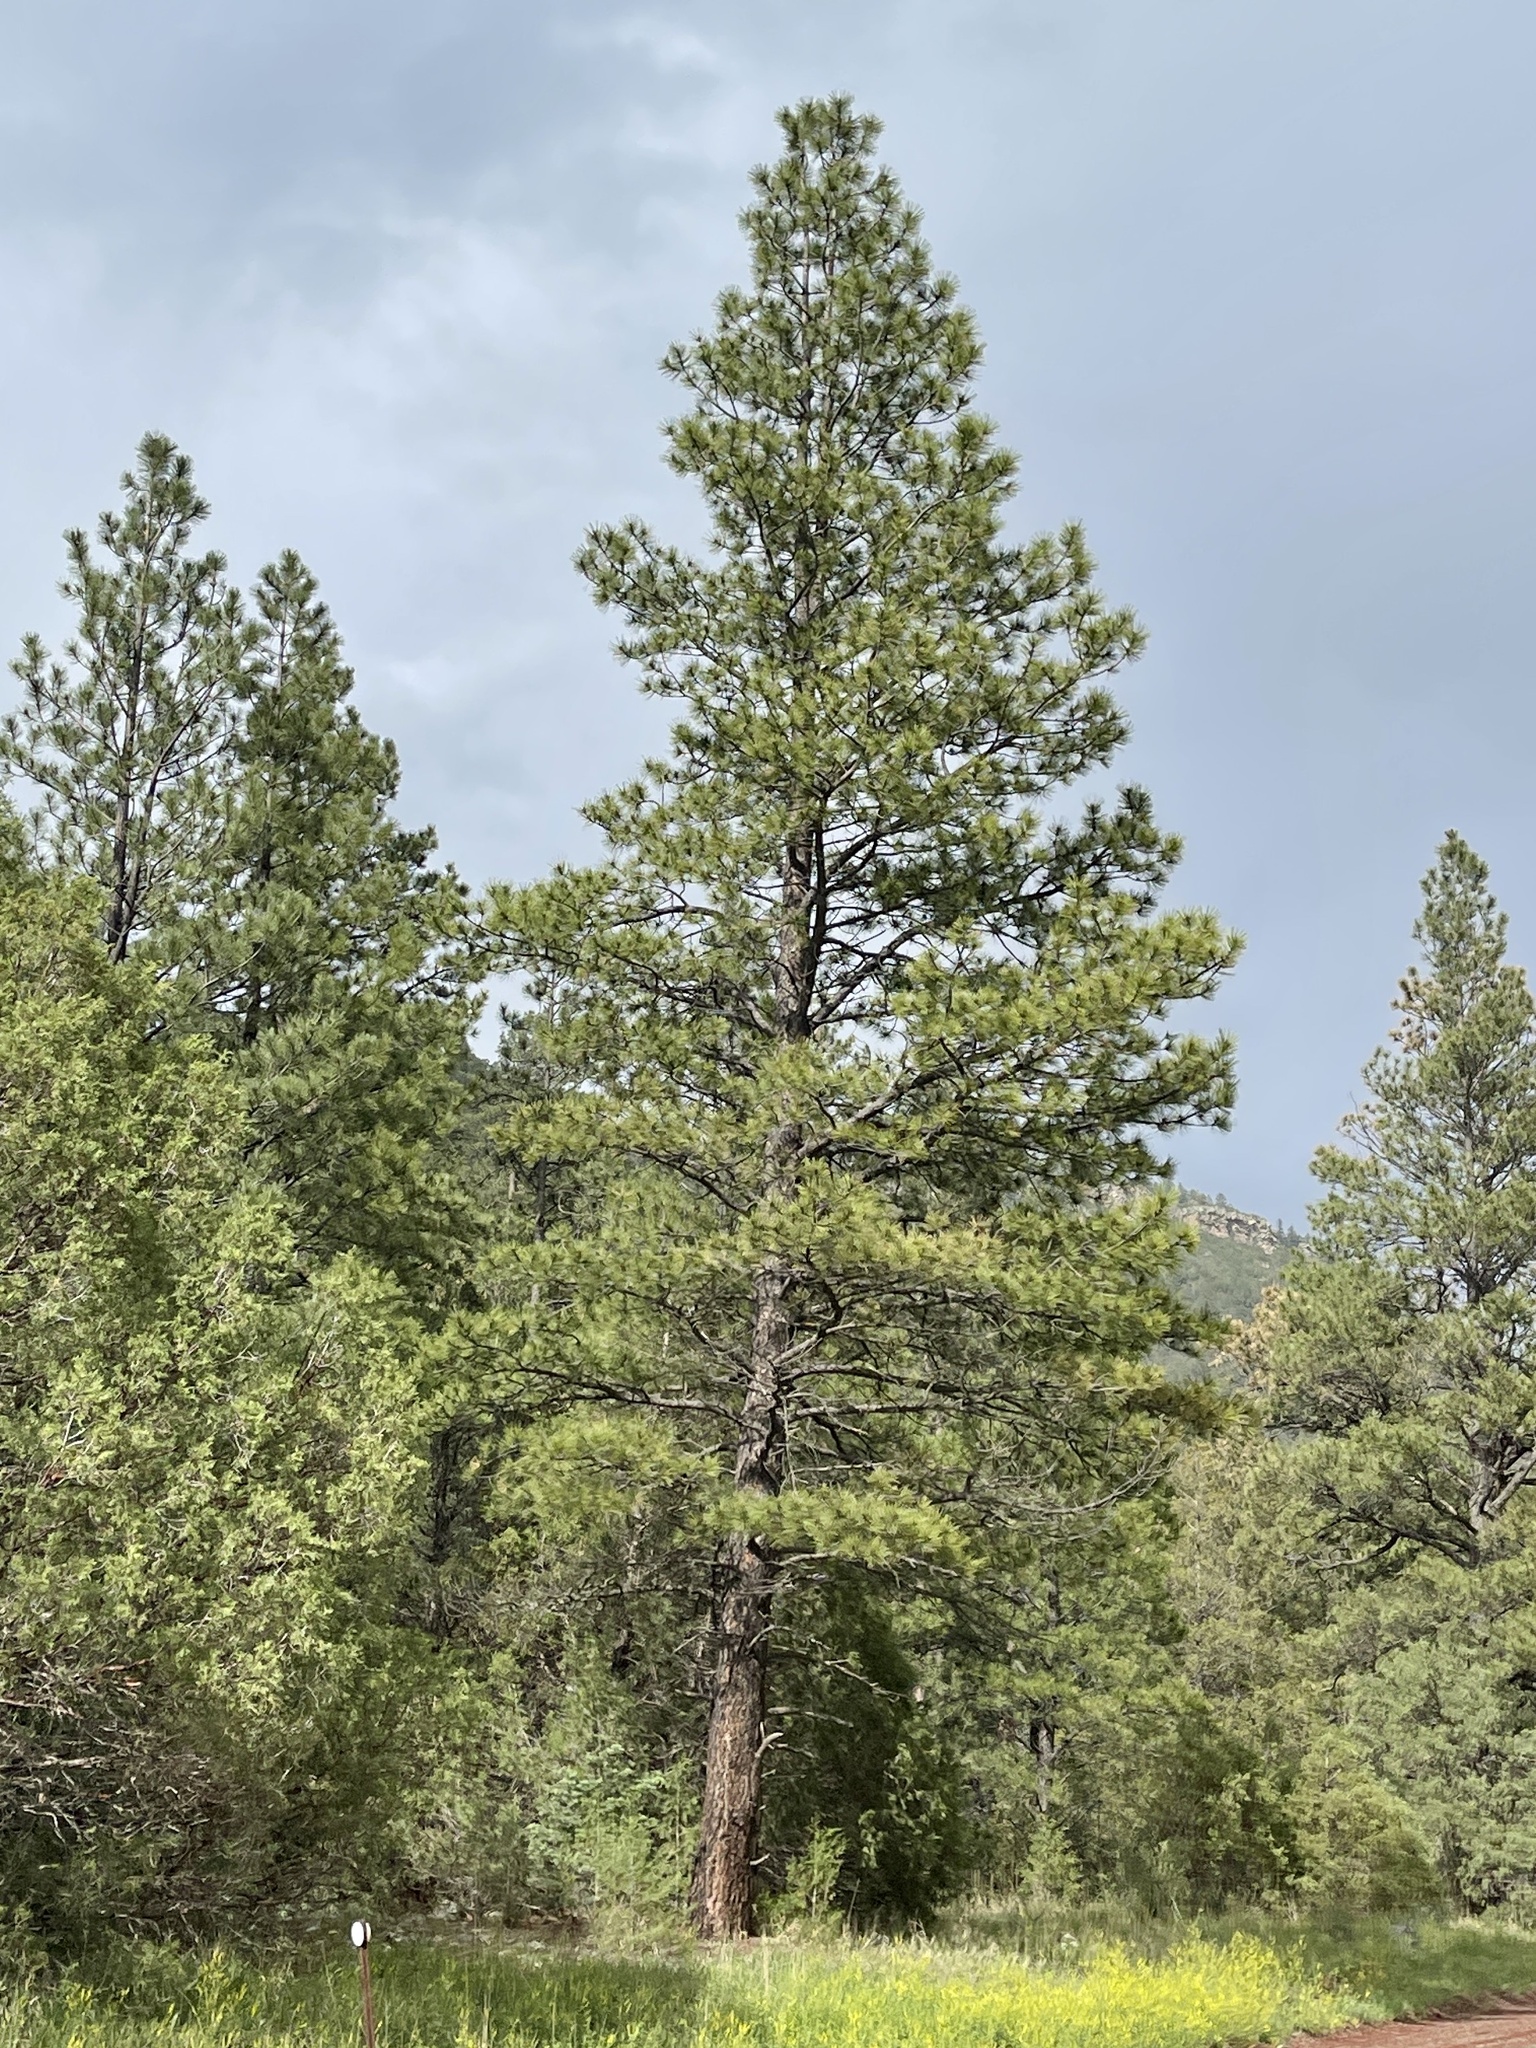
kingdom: Plantae
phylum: Tracheophyta
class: Pinopsida
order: Pinales
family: Pinaceae
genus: Pinus
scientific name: Pinus ponderosa
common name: Western yellow-pine
